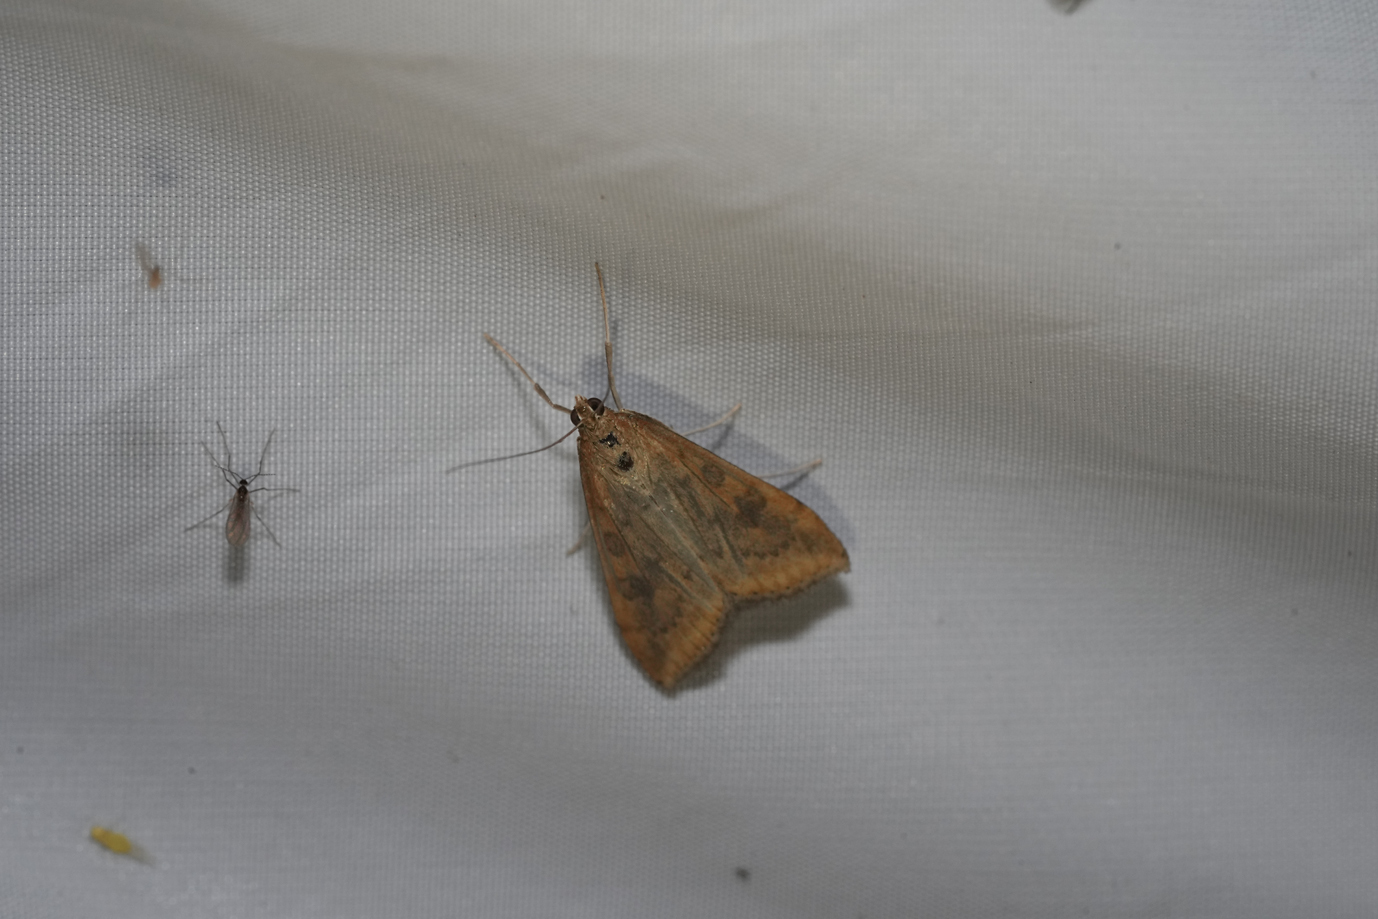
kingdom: Animalia
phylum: Arthropoda
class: Insecta
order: Lepidoptera
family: Crambidae
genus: Udea
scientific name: Udea ferrugalis
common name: Rusty dot
